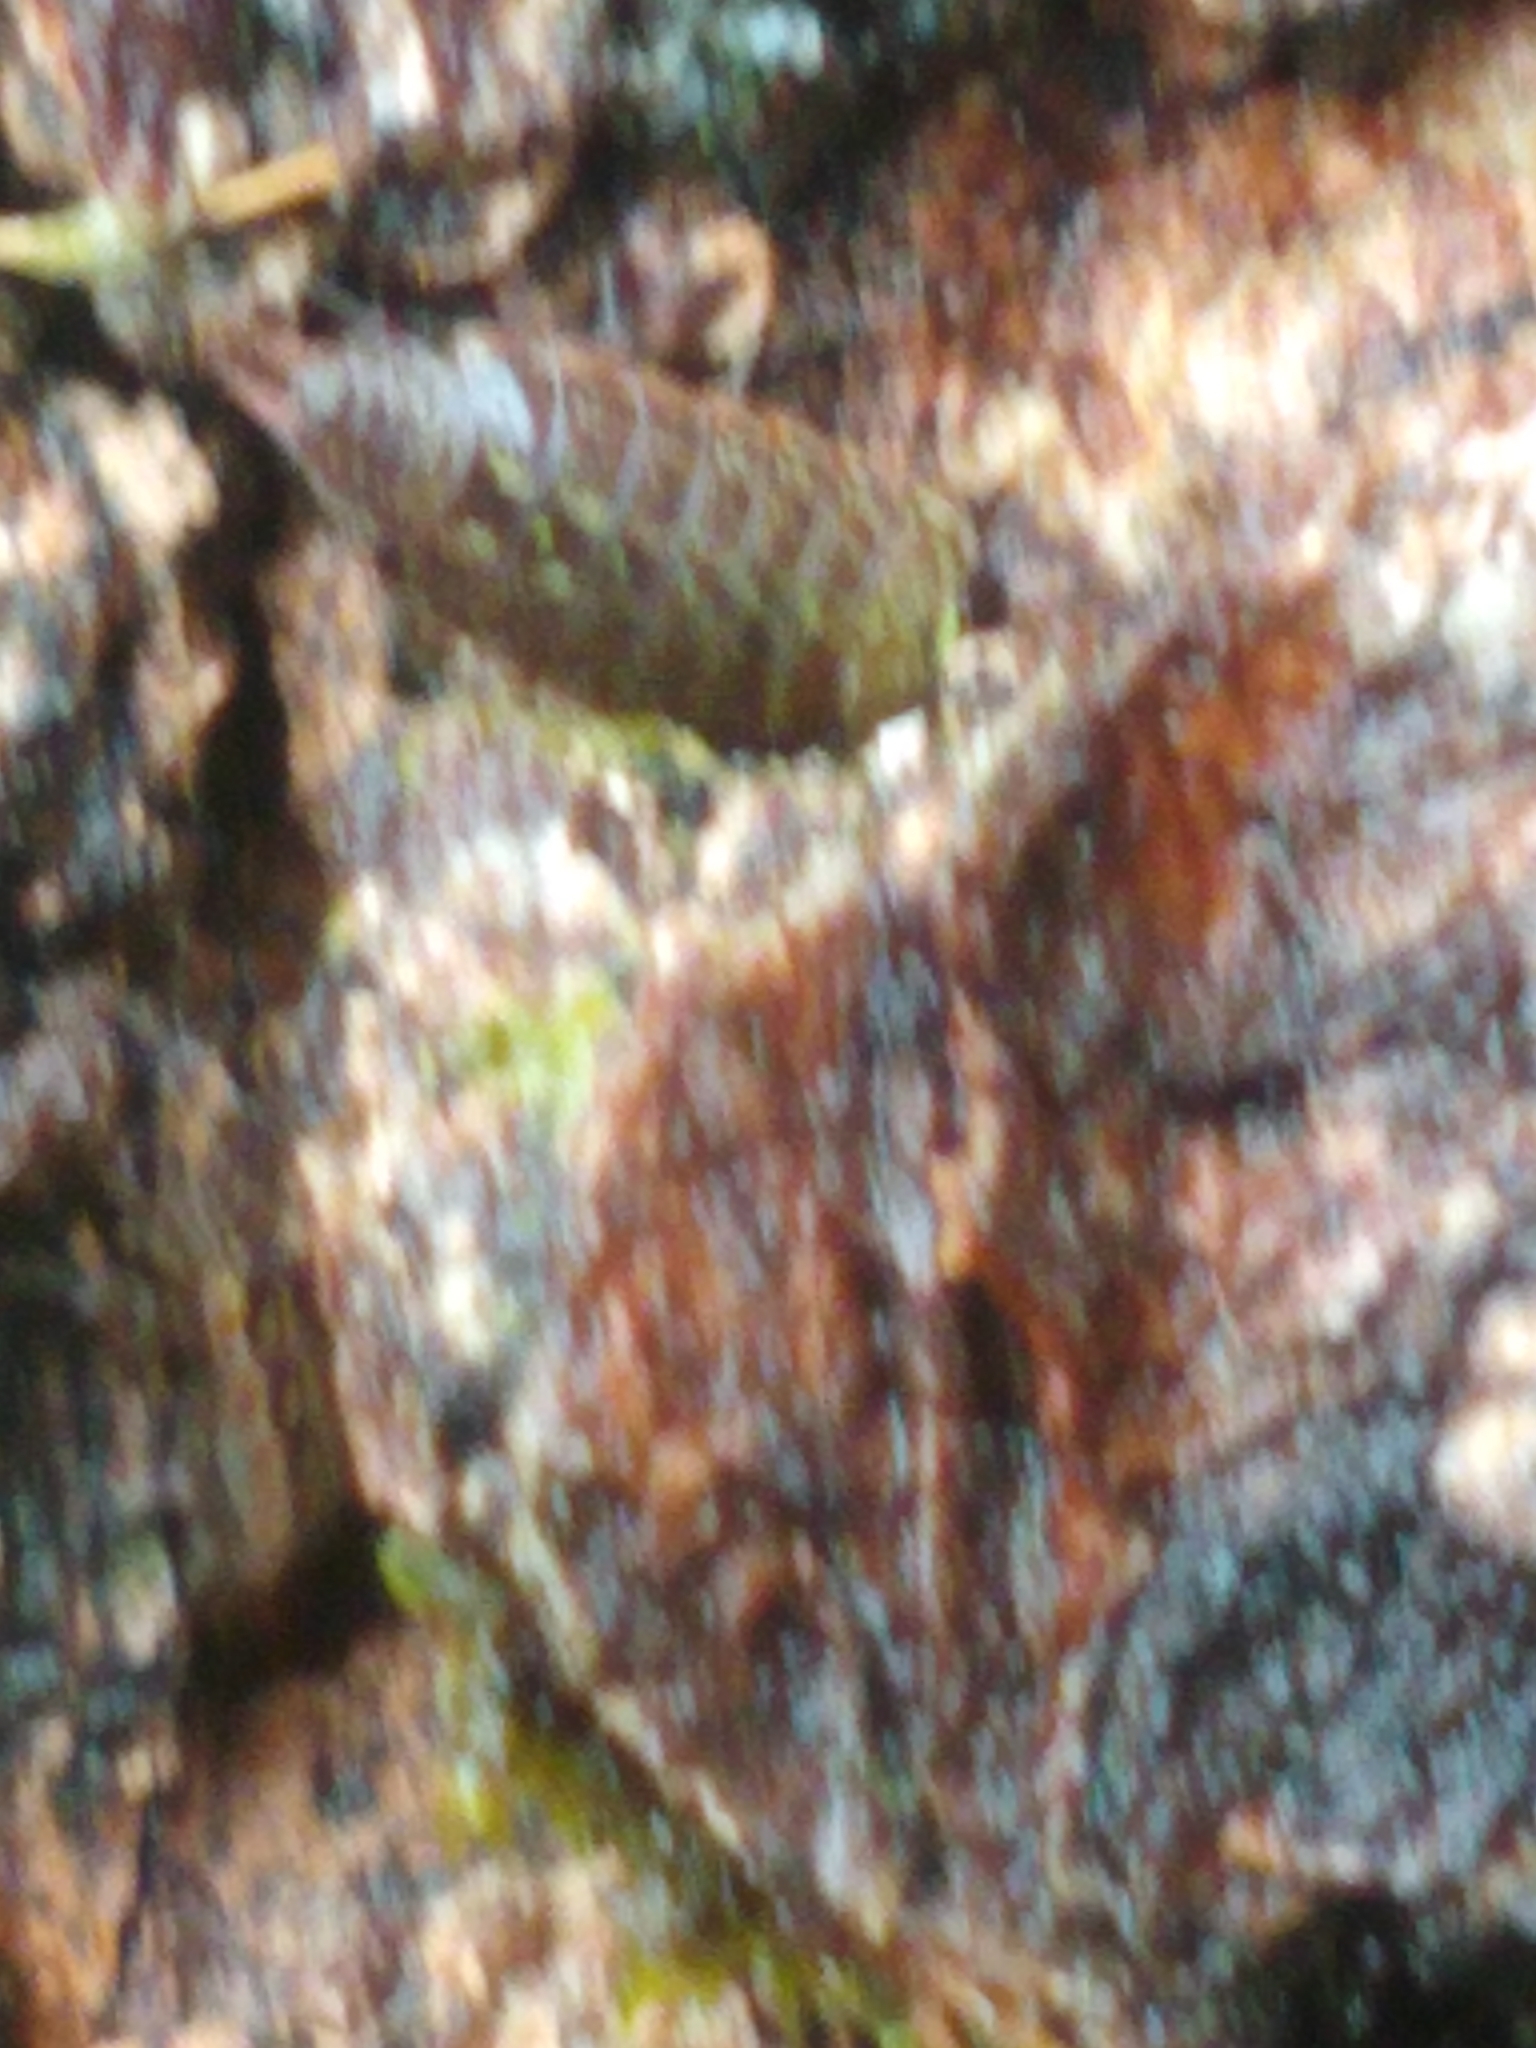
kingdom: Animalia
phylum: Arthropoda
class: Malacostraca
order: Isopoda
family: Philosciidae
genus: Philoscia
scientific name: Philoscia muscorum
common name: Common striped woodlouse
